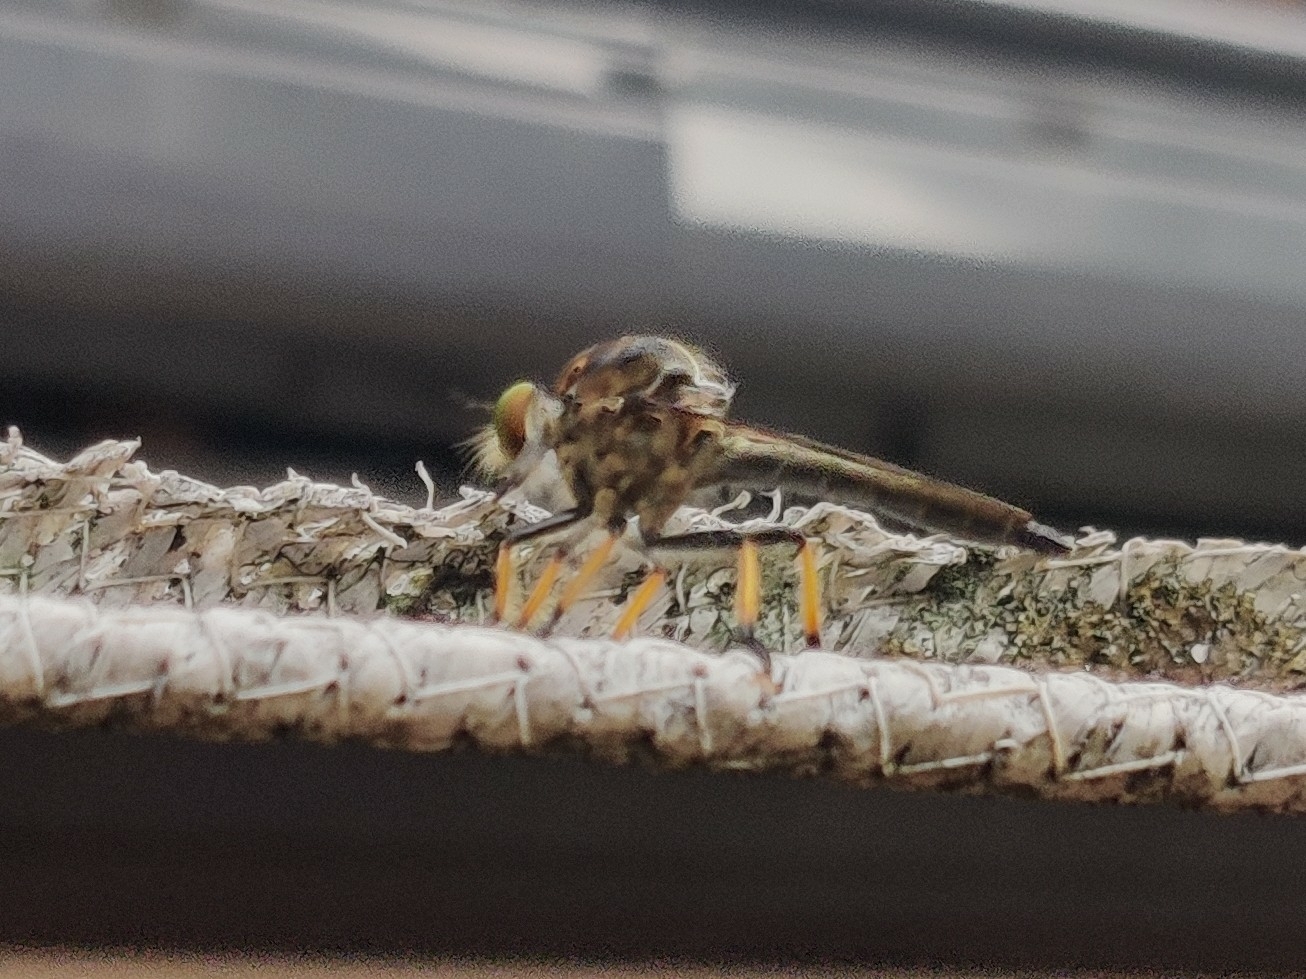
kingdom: Animalia
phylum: Arthropoda
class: Insecta
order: Diptera
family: Asilidae
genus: Ommatius
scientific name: Ommatius coeraebus
